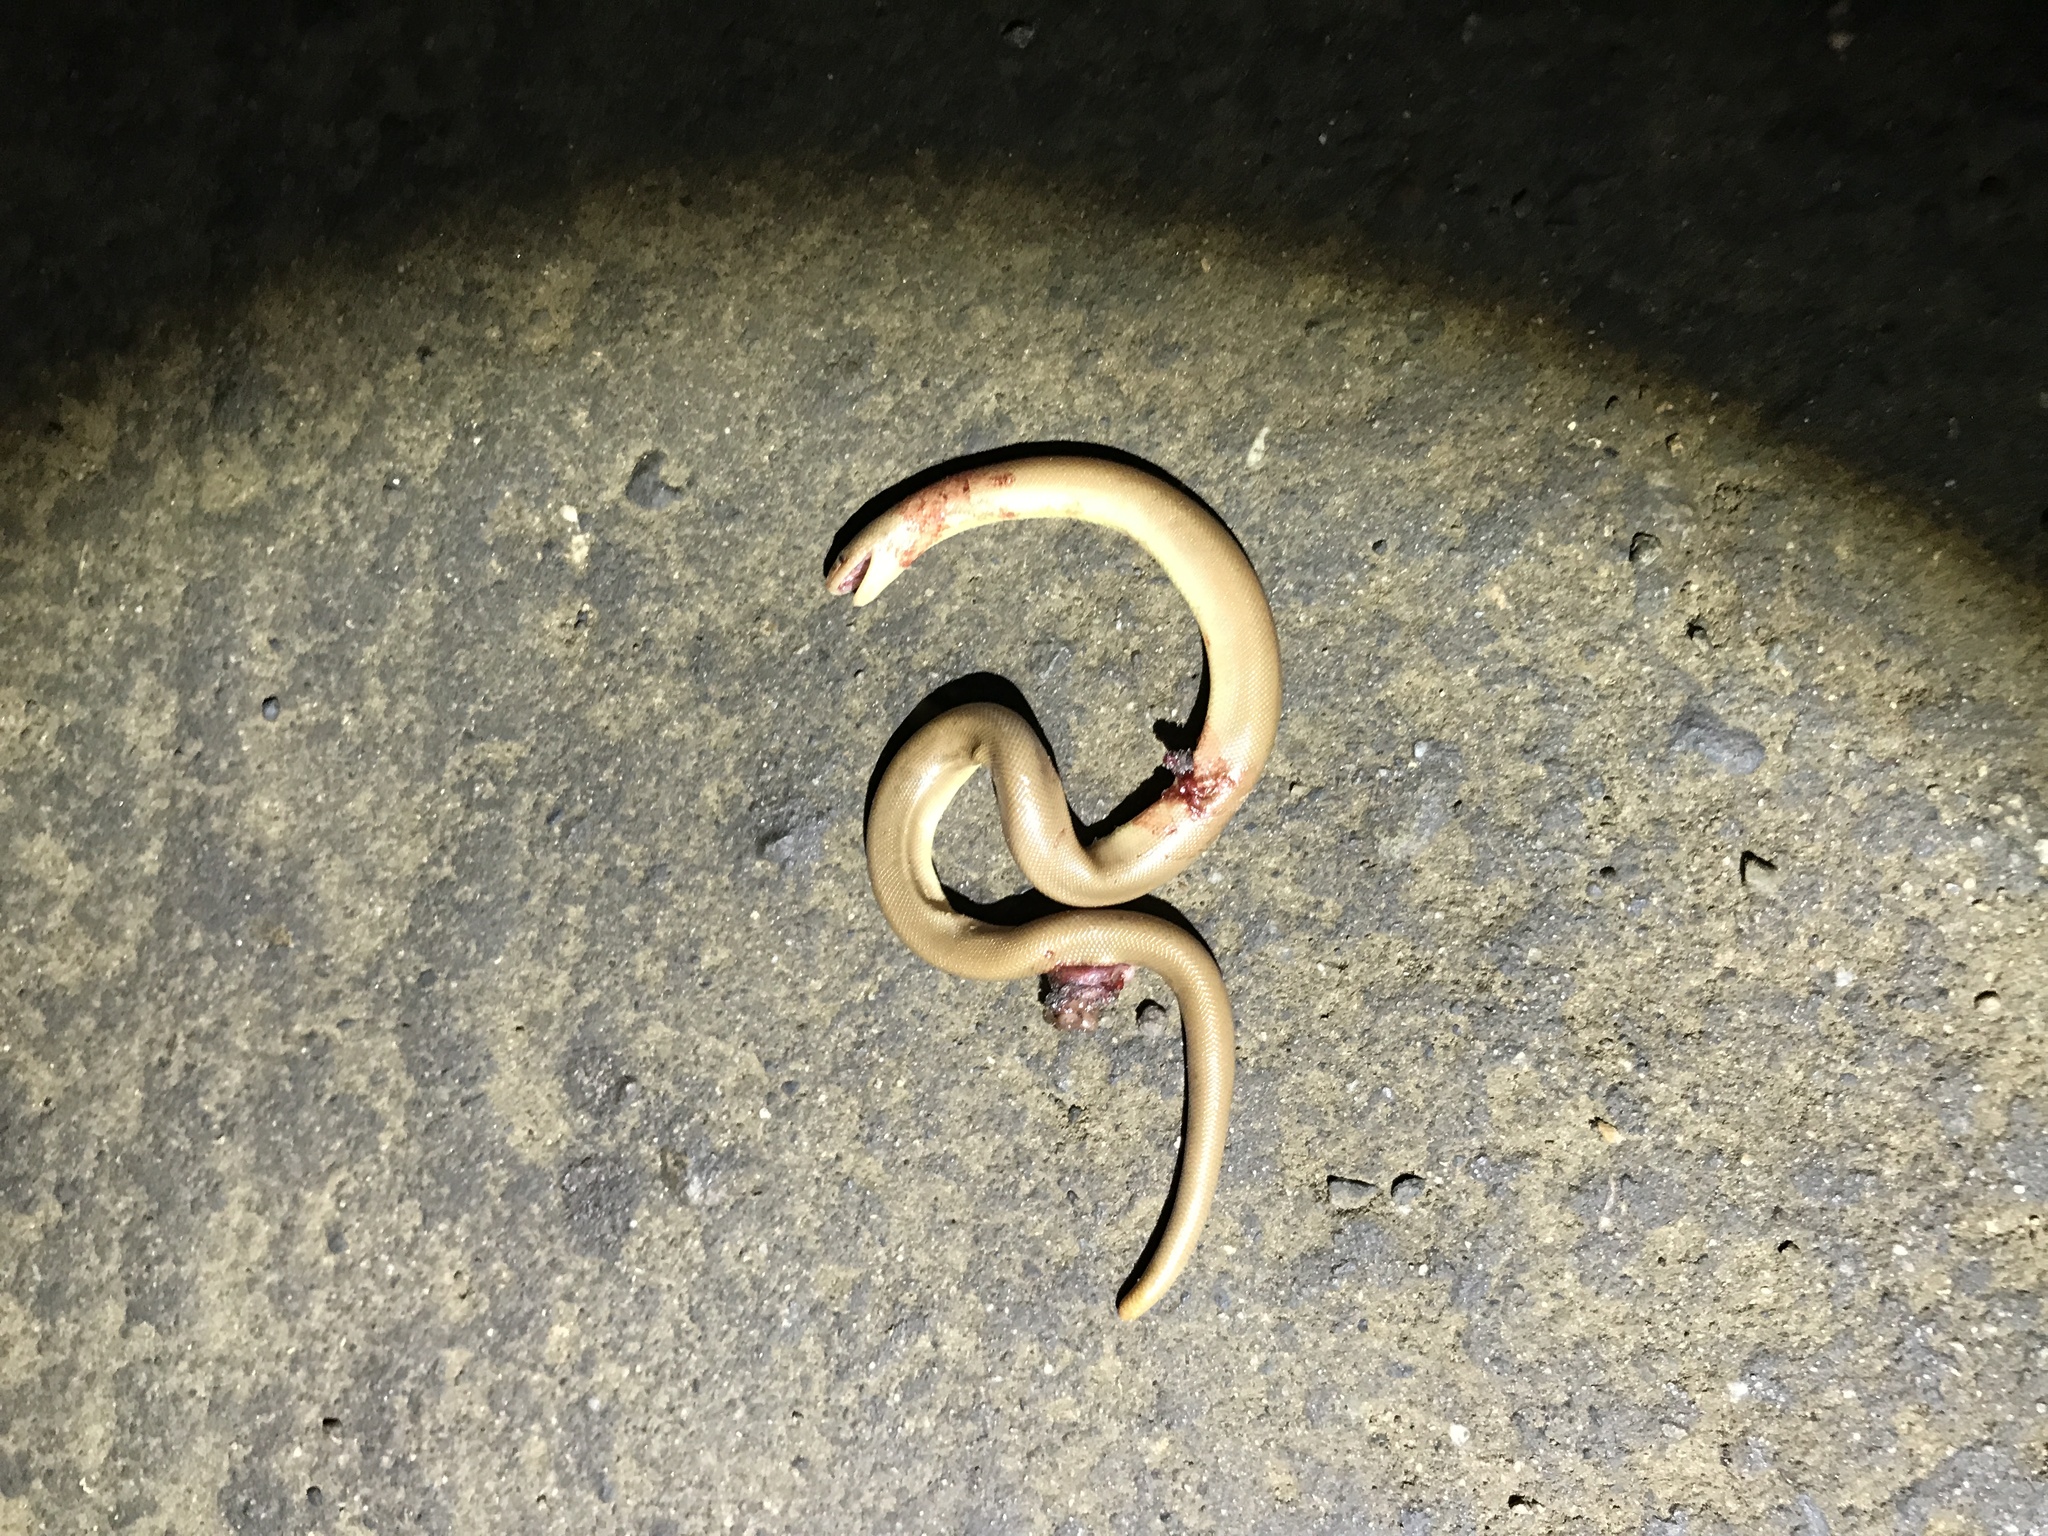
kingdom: Animalia
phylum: Chordata
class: Squamata
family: Boidae
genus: Charina
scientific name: Charina bottae
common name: Northern rubber boa
